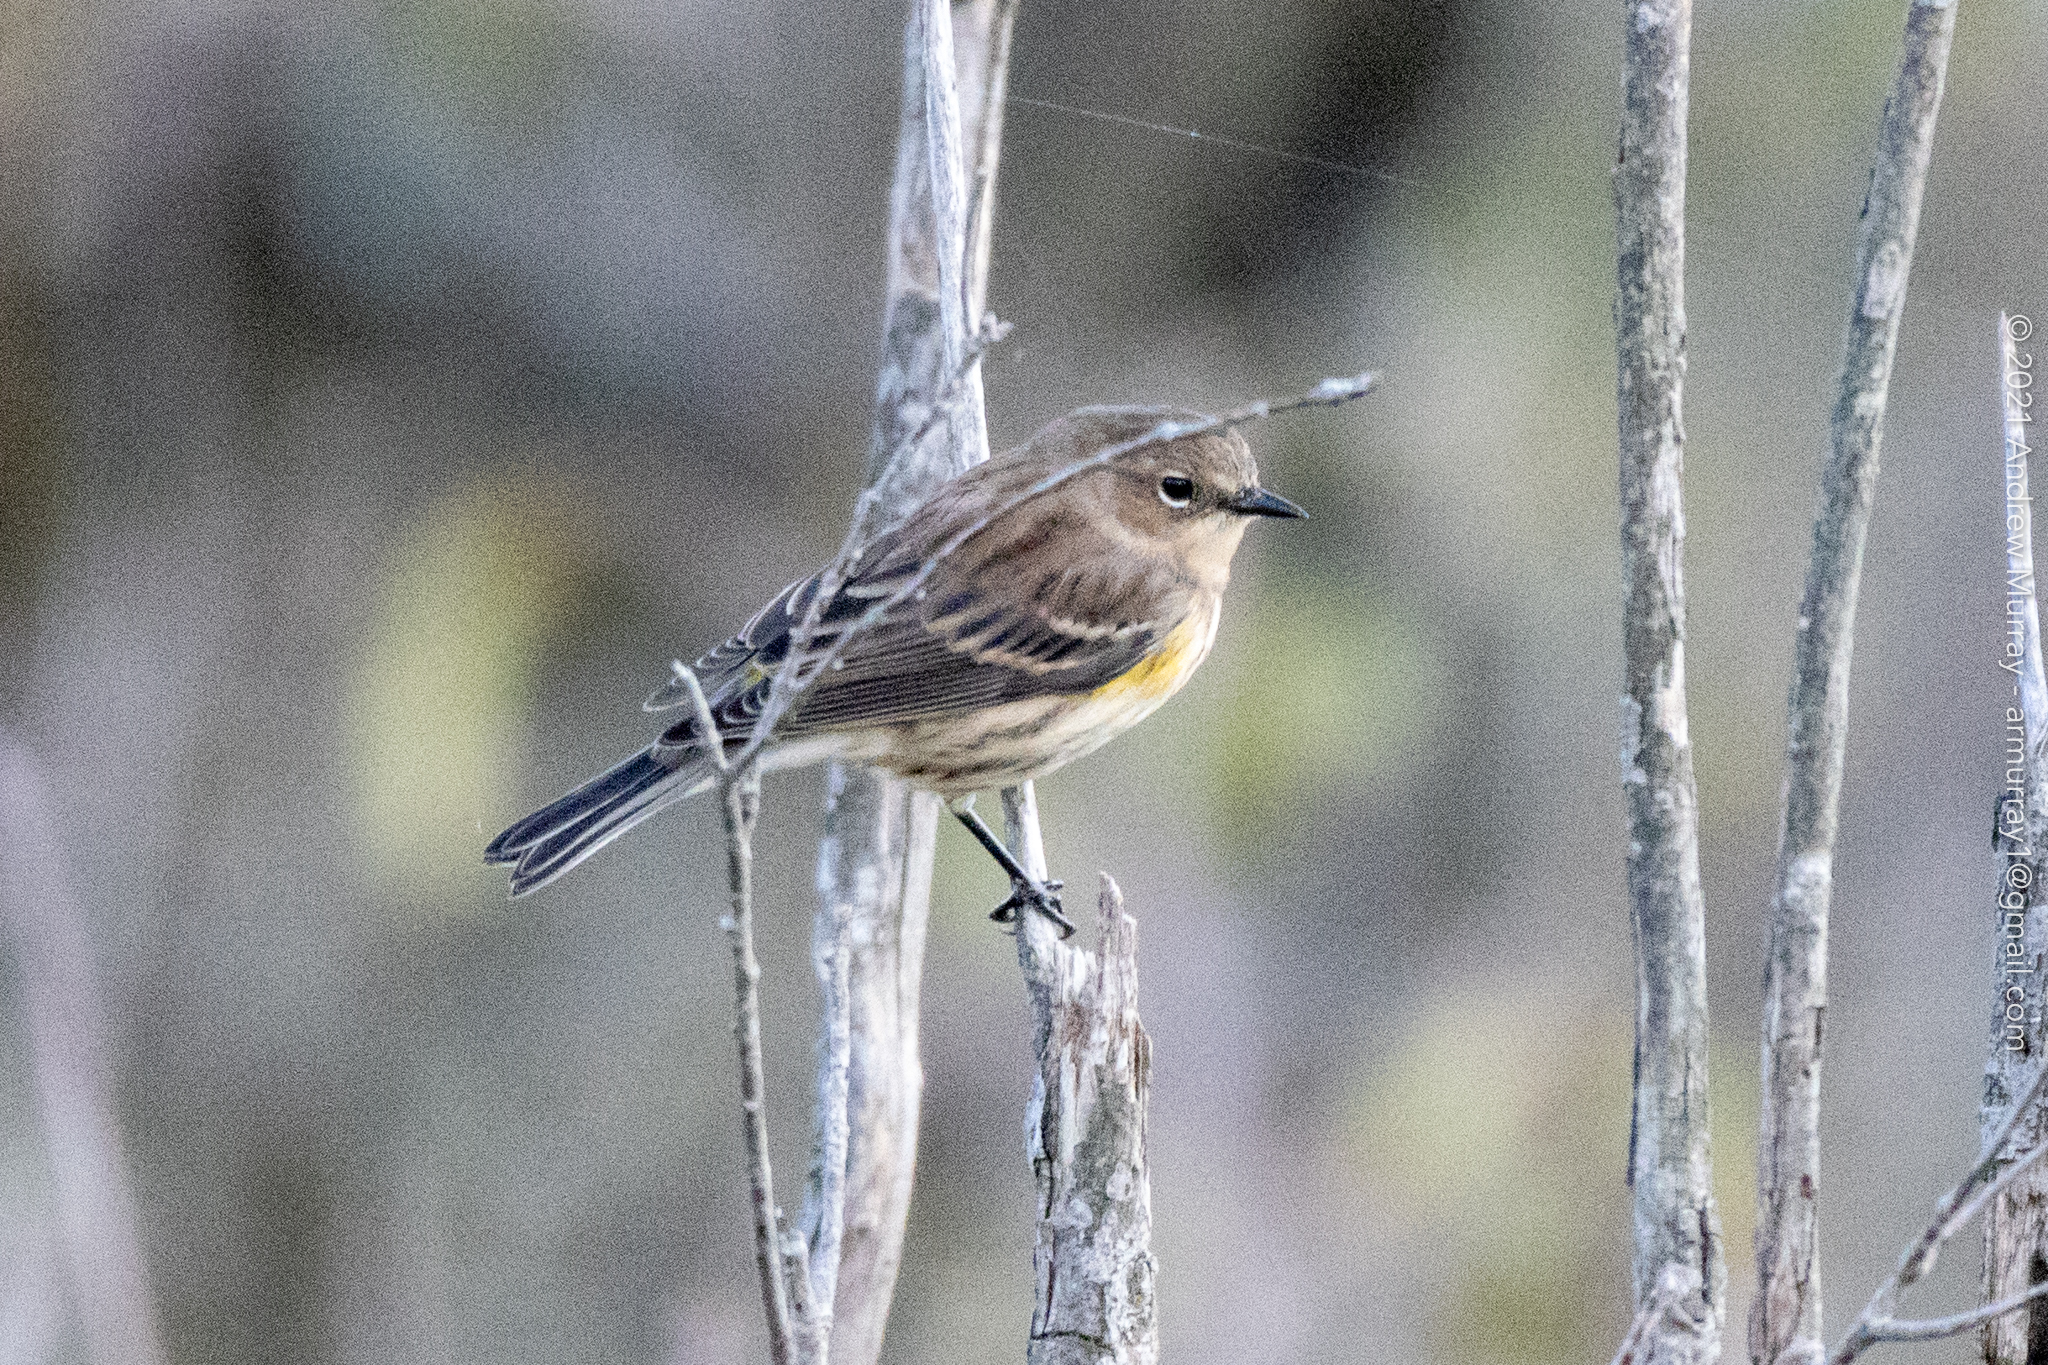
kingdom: Animalia
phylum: Chordata
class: Aves
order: Passeriformes
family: Parulidae
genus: Setophaga
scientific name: Setophaga coronata
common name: Myrtle warbler
